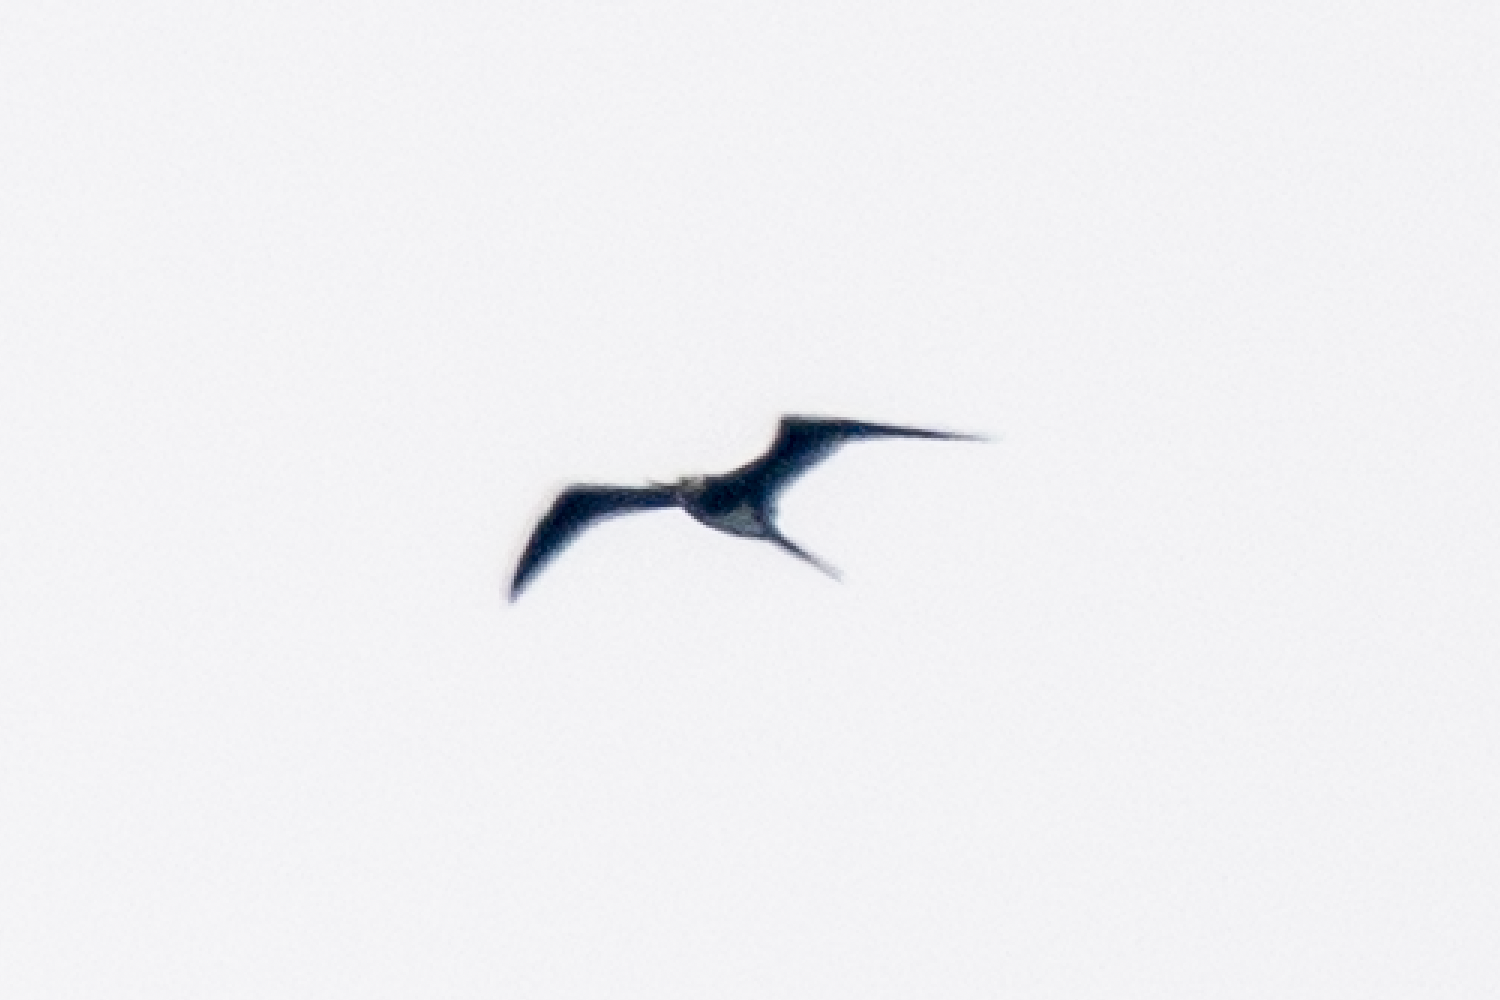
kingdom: Animalia
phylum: Chordata
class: Aves
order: Suliformes
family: Fregatidae
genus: Fregata
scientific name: Fregata ariel
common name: Lesser frigatebird
